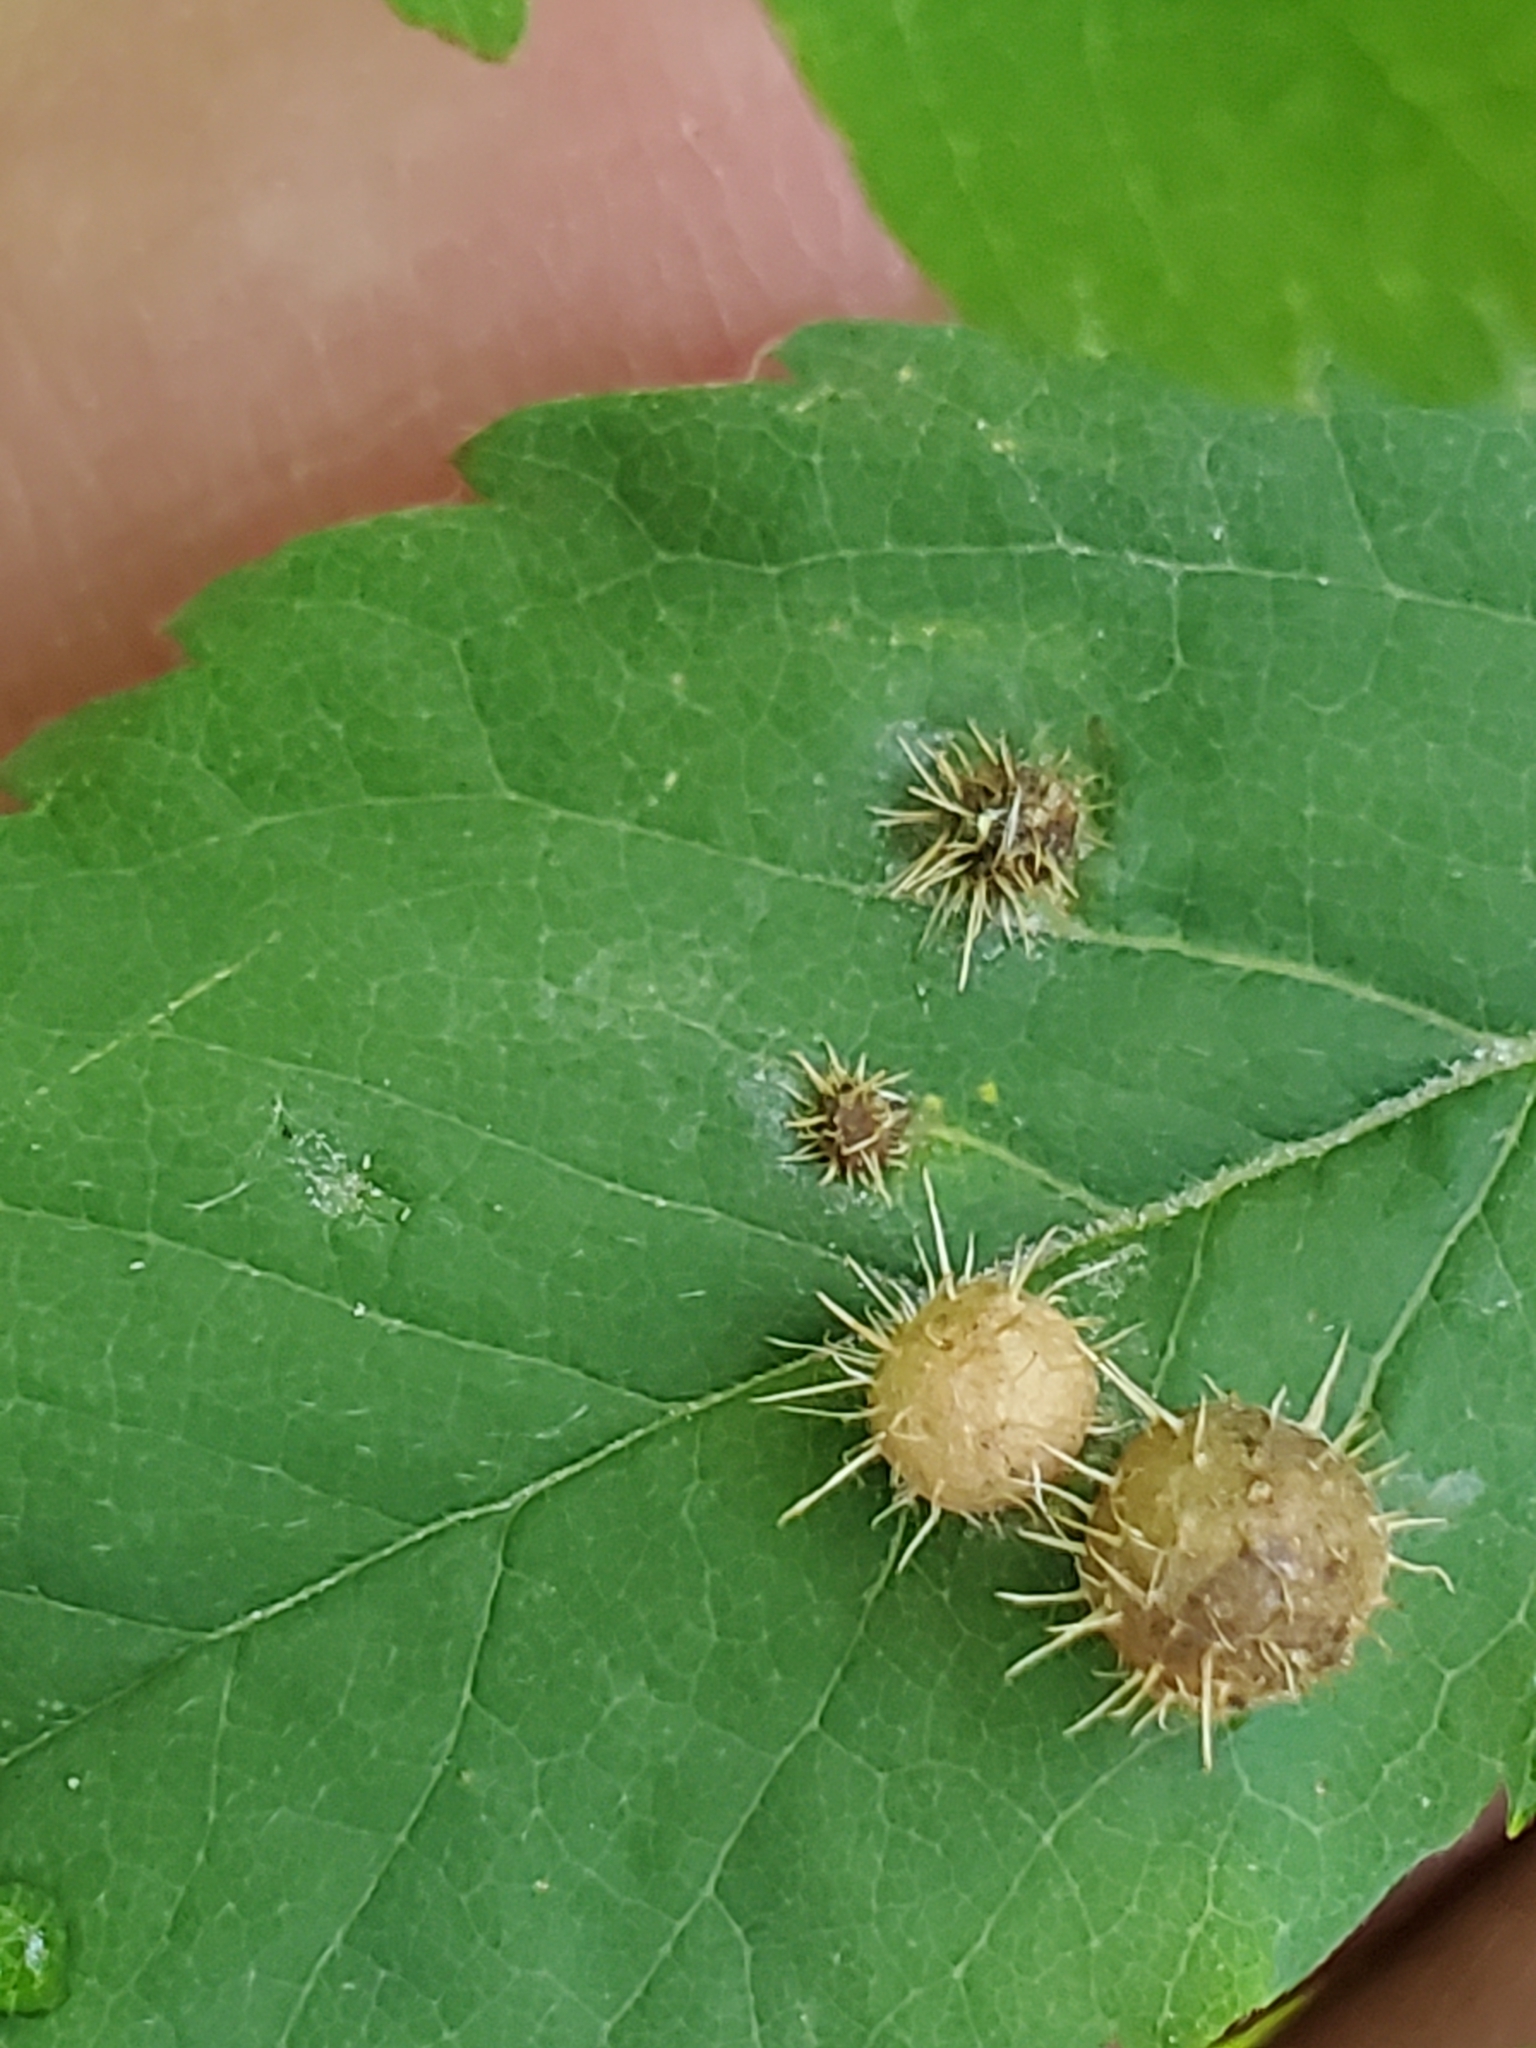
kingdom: Animalia
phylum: Arthropoda
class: Insecta
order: Hymenoptera
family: Cynipidae
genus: Diplolepis
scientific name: Diplolepis polita
